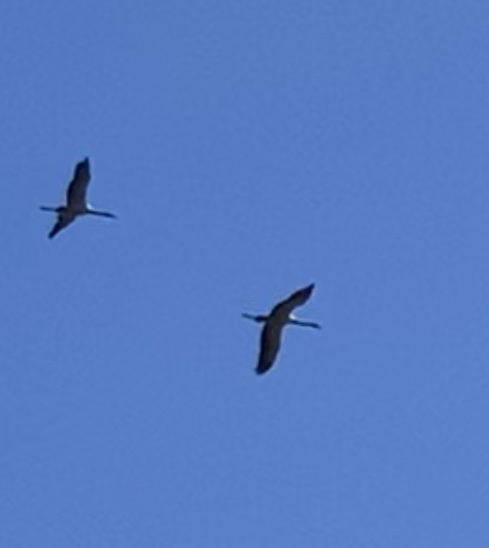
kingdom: Animalia
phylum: Chordata
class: Aves
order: Gruiformes
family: Gruidae
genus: Grus
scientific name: Grus grus
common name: Common crane
